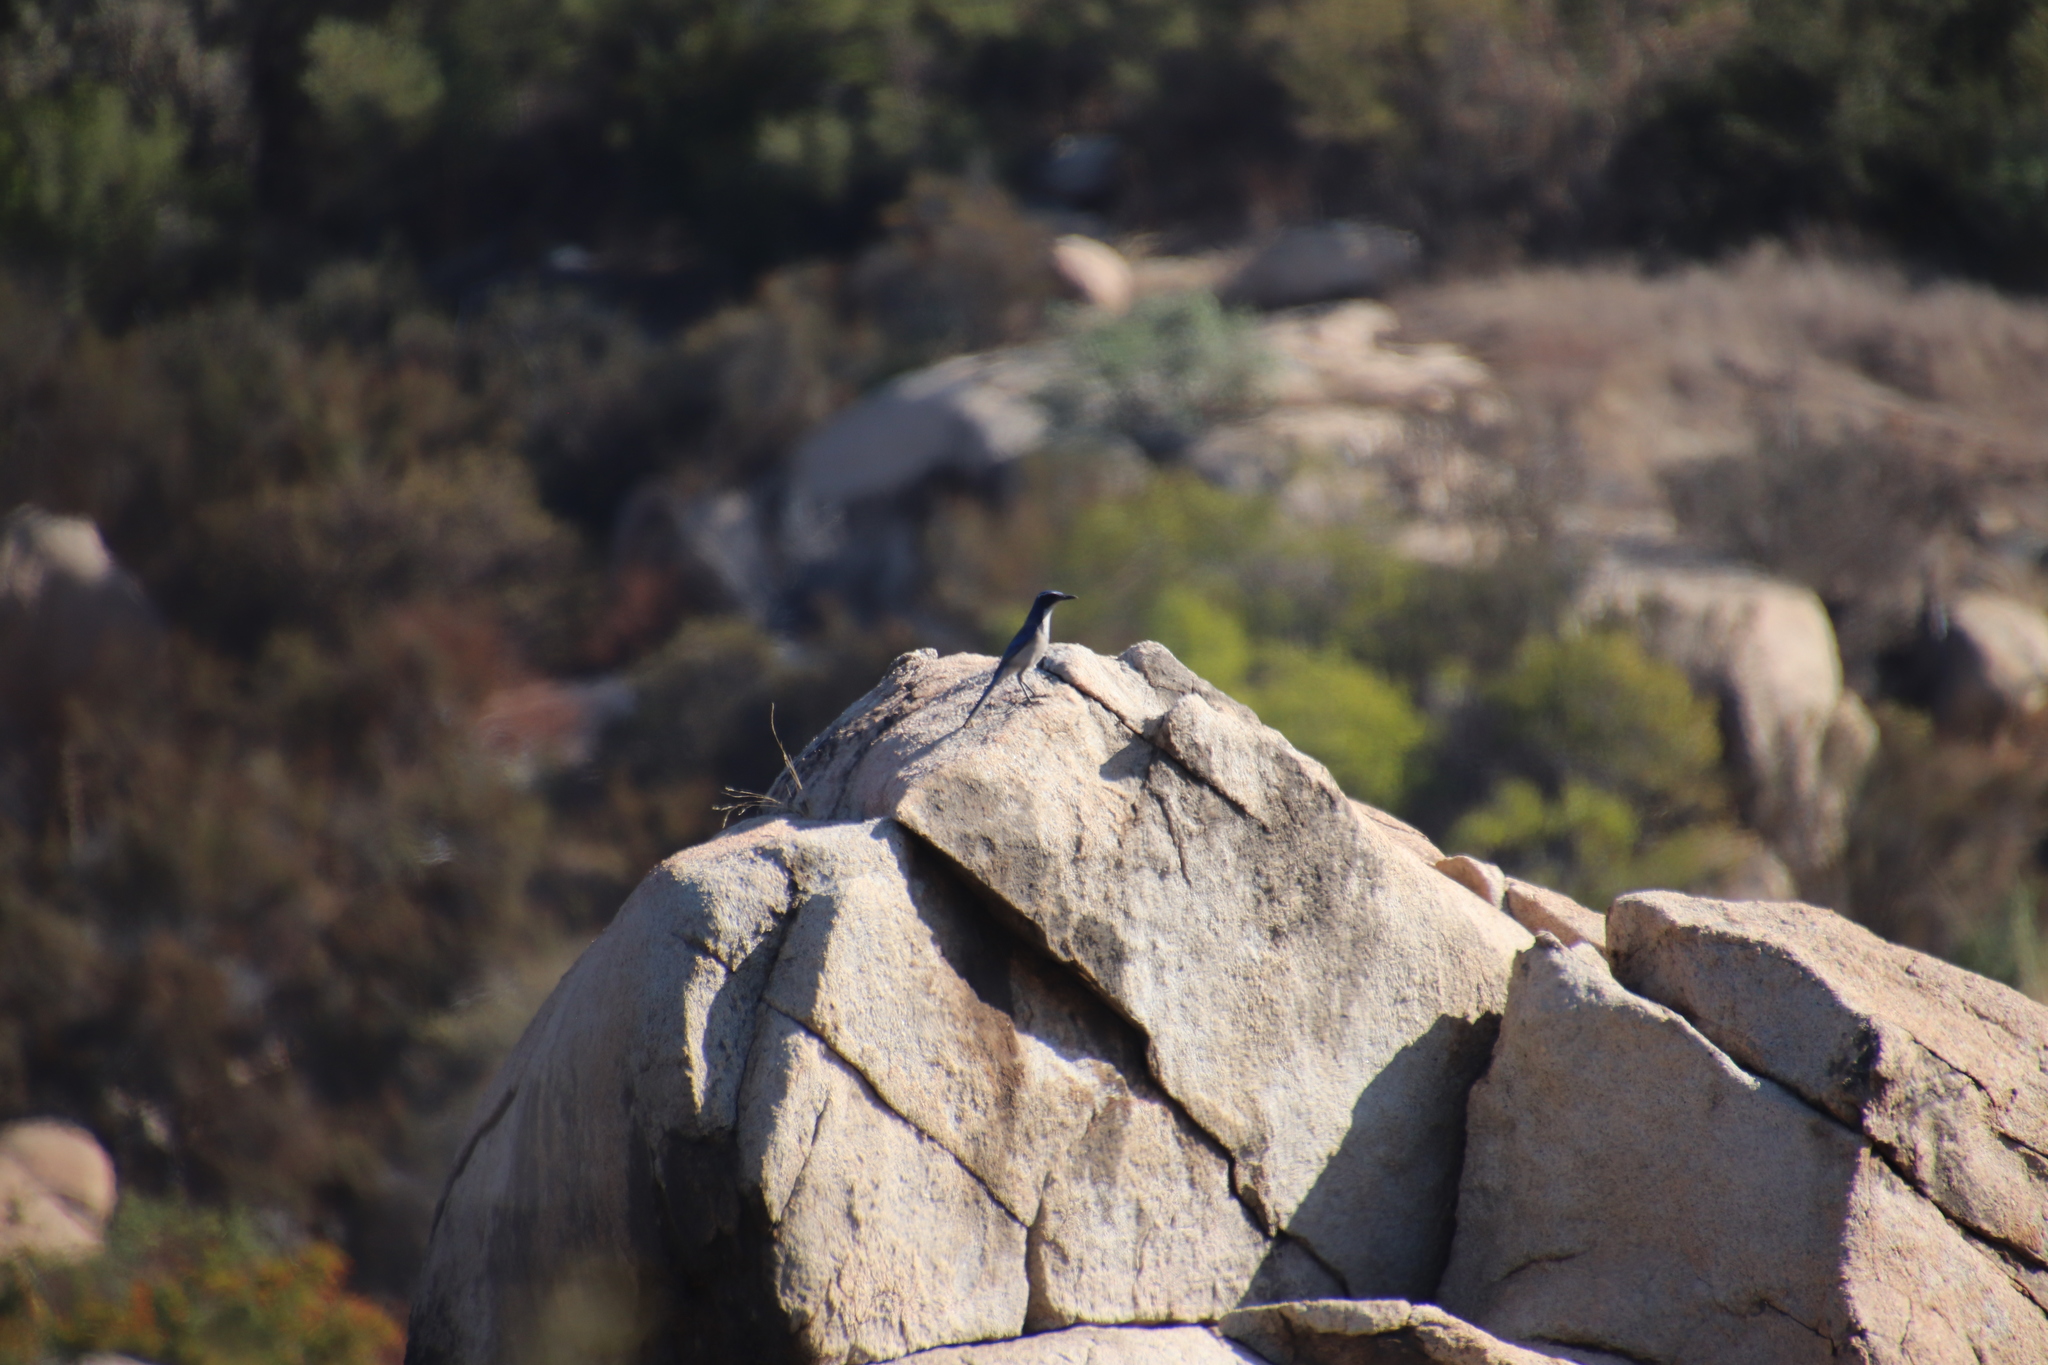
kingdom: Animalia
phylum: Chordata
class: Aves
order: Passeriformes
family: Corvidae
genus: Aphelocoma
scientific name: Aphelocoma californica
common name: California scrub-jay
